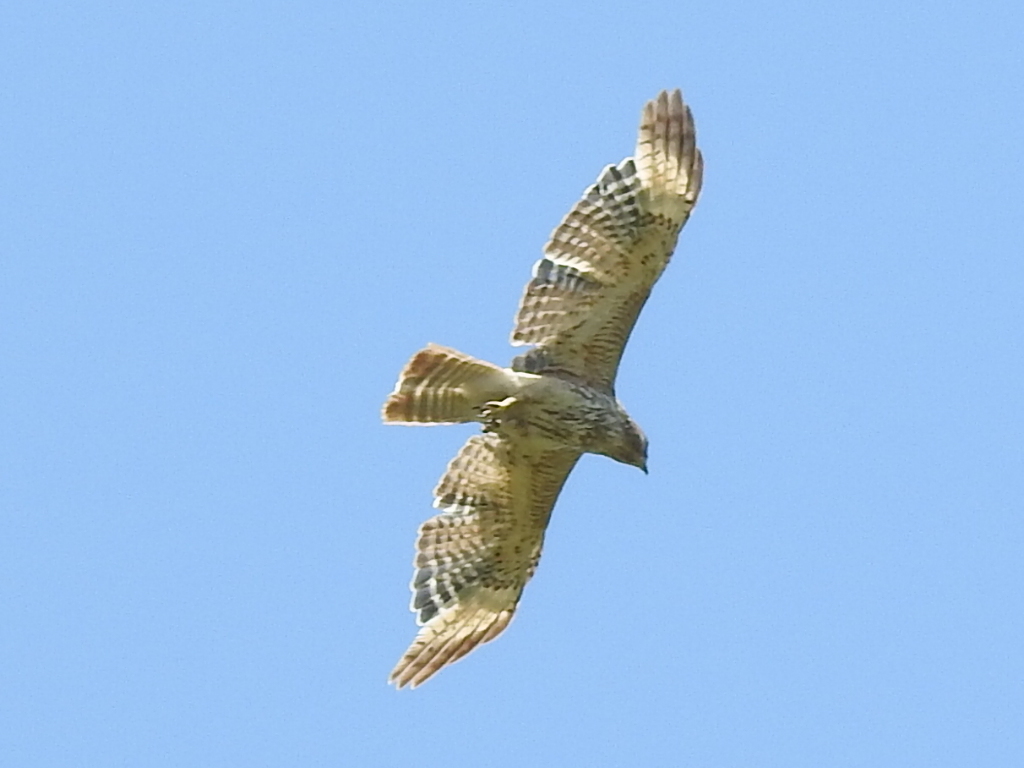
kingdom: Animalia
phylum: Chordata
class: Aves
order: Accipitriformes
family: Accipitridae
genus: Buteo
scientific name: Buteo lineatus
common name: Red-shouldered hawk
